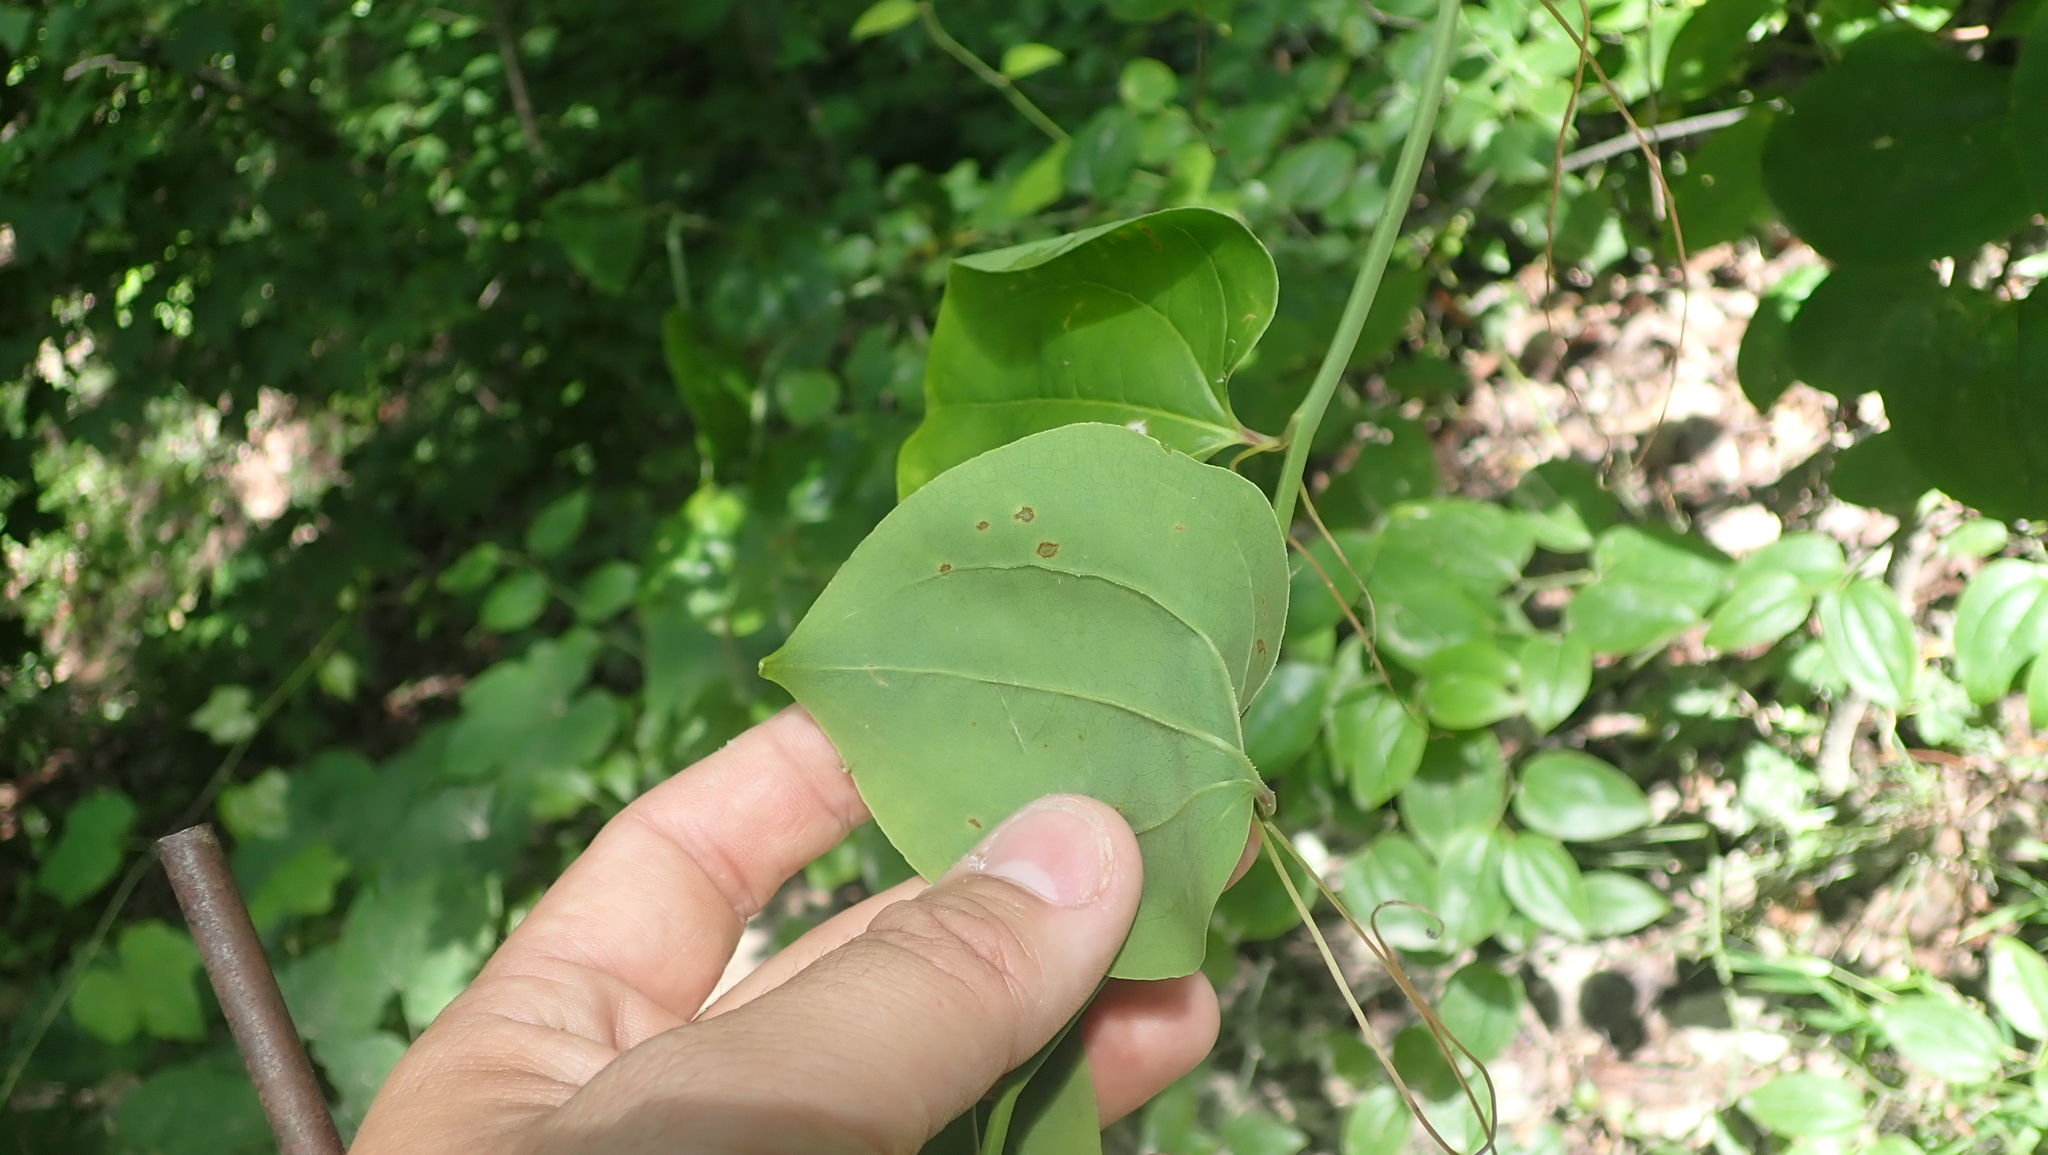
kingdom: Plantae
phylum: Tracheophyta
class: Liliopsida
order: Liliales
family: Smilacaceae
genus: Smilax
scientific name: Smilax rotundifolia
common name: Bullbriar
